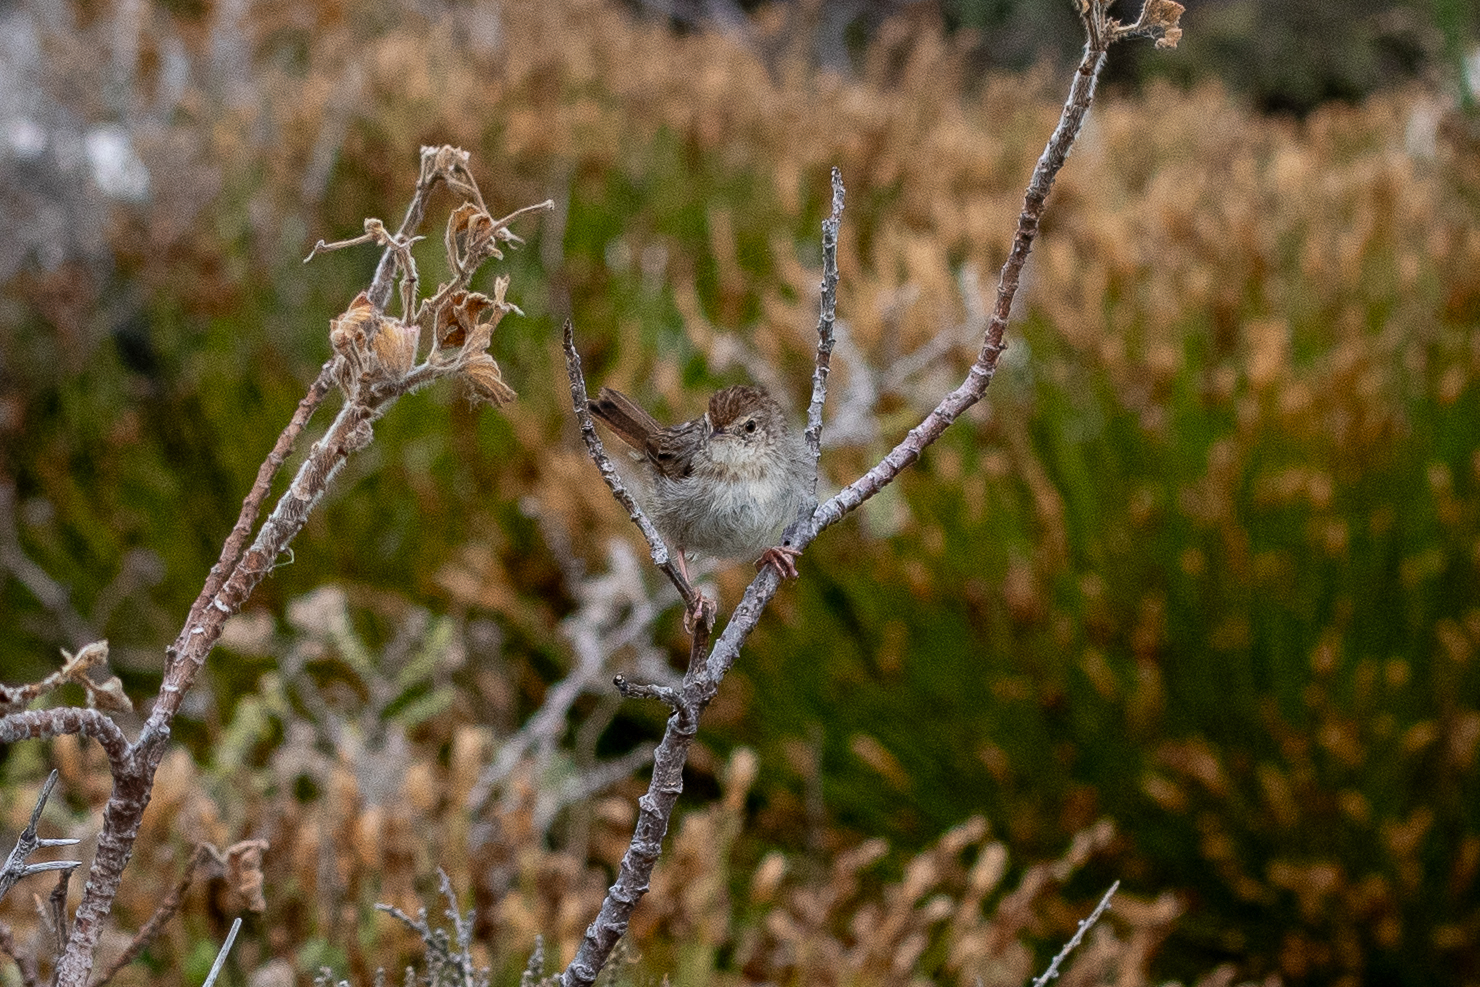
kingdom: Animalia
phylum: Chordata
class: Aves
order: Passeriformes
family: Cisticolidae
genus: Cisticola
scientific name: Cisticola subruficapilla
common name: Grey-backed cisticola
